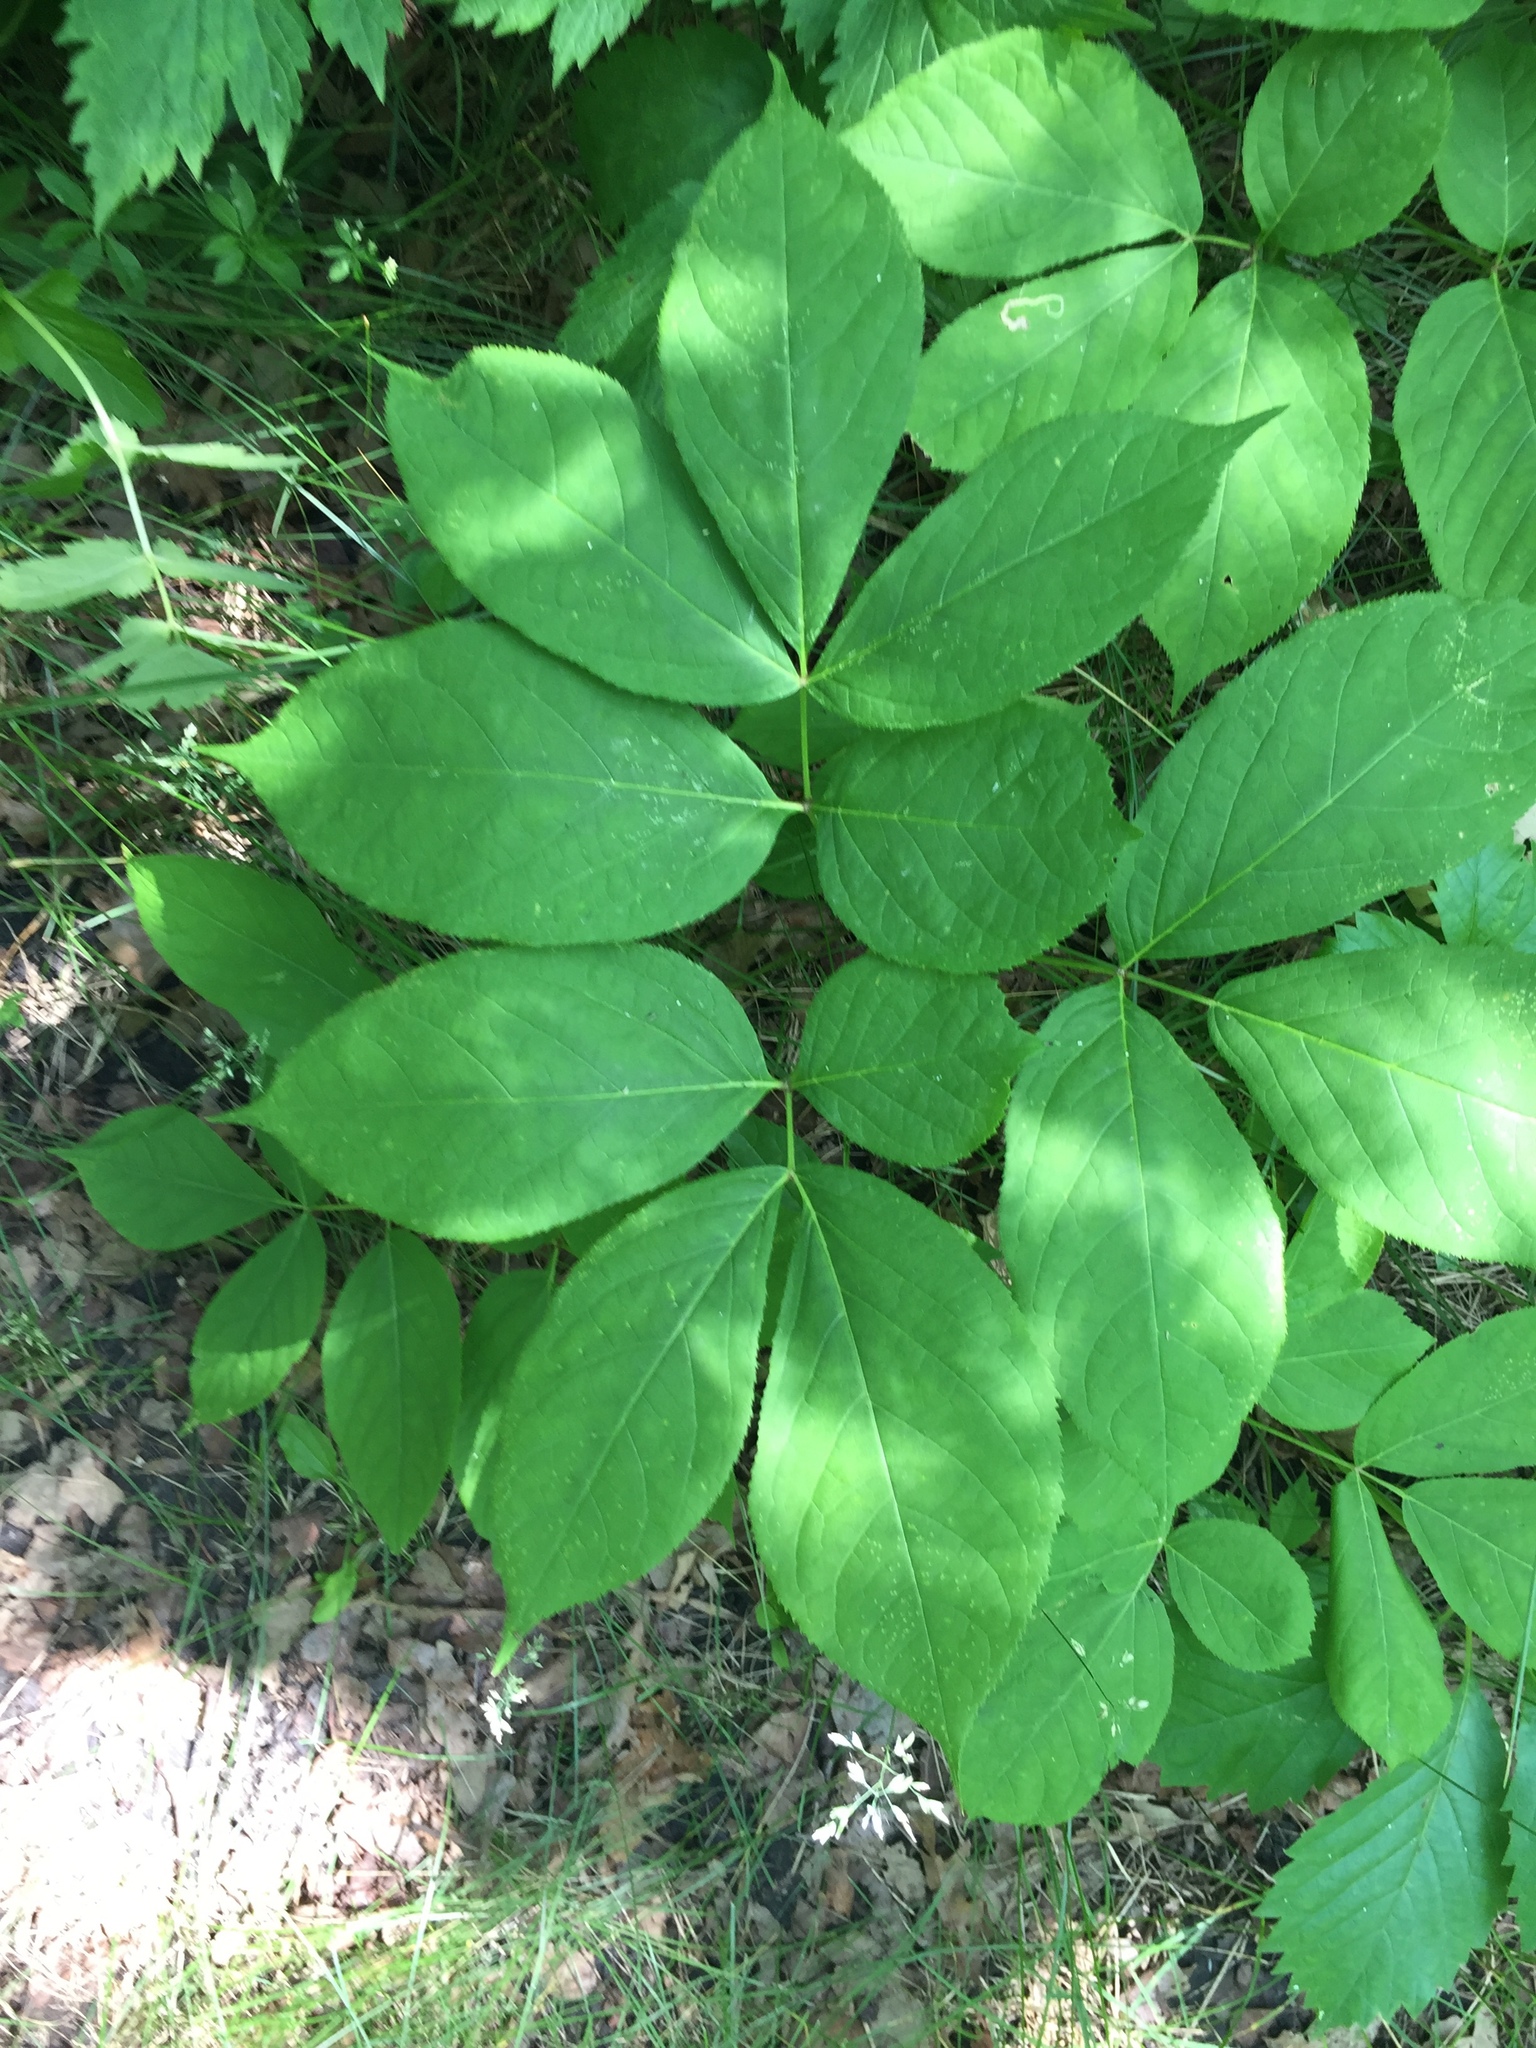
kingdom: Plantae
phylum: Tracheophyta
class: Magnoliopsida
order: Apiales
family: Araliaceae
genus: Aralia
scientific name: Aralia nudicaulis
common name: Wild sarsaparilla
